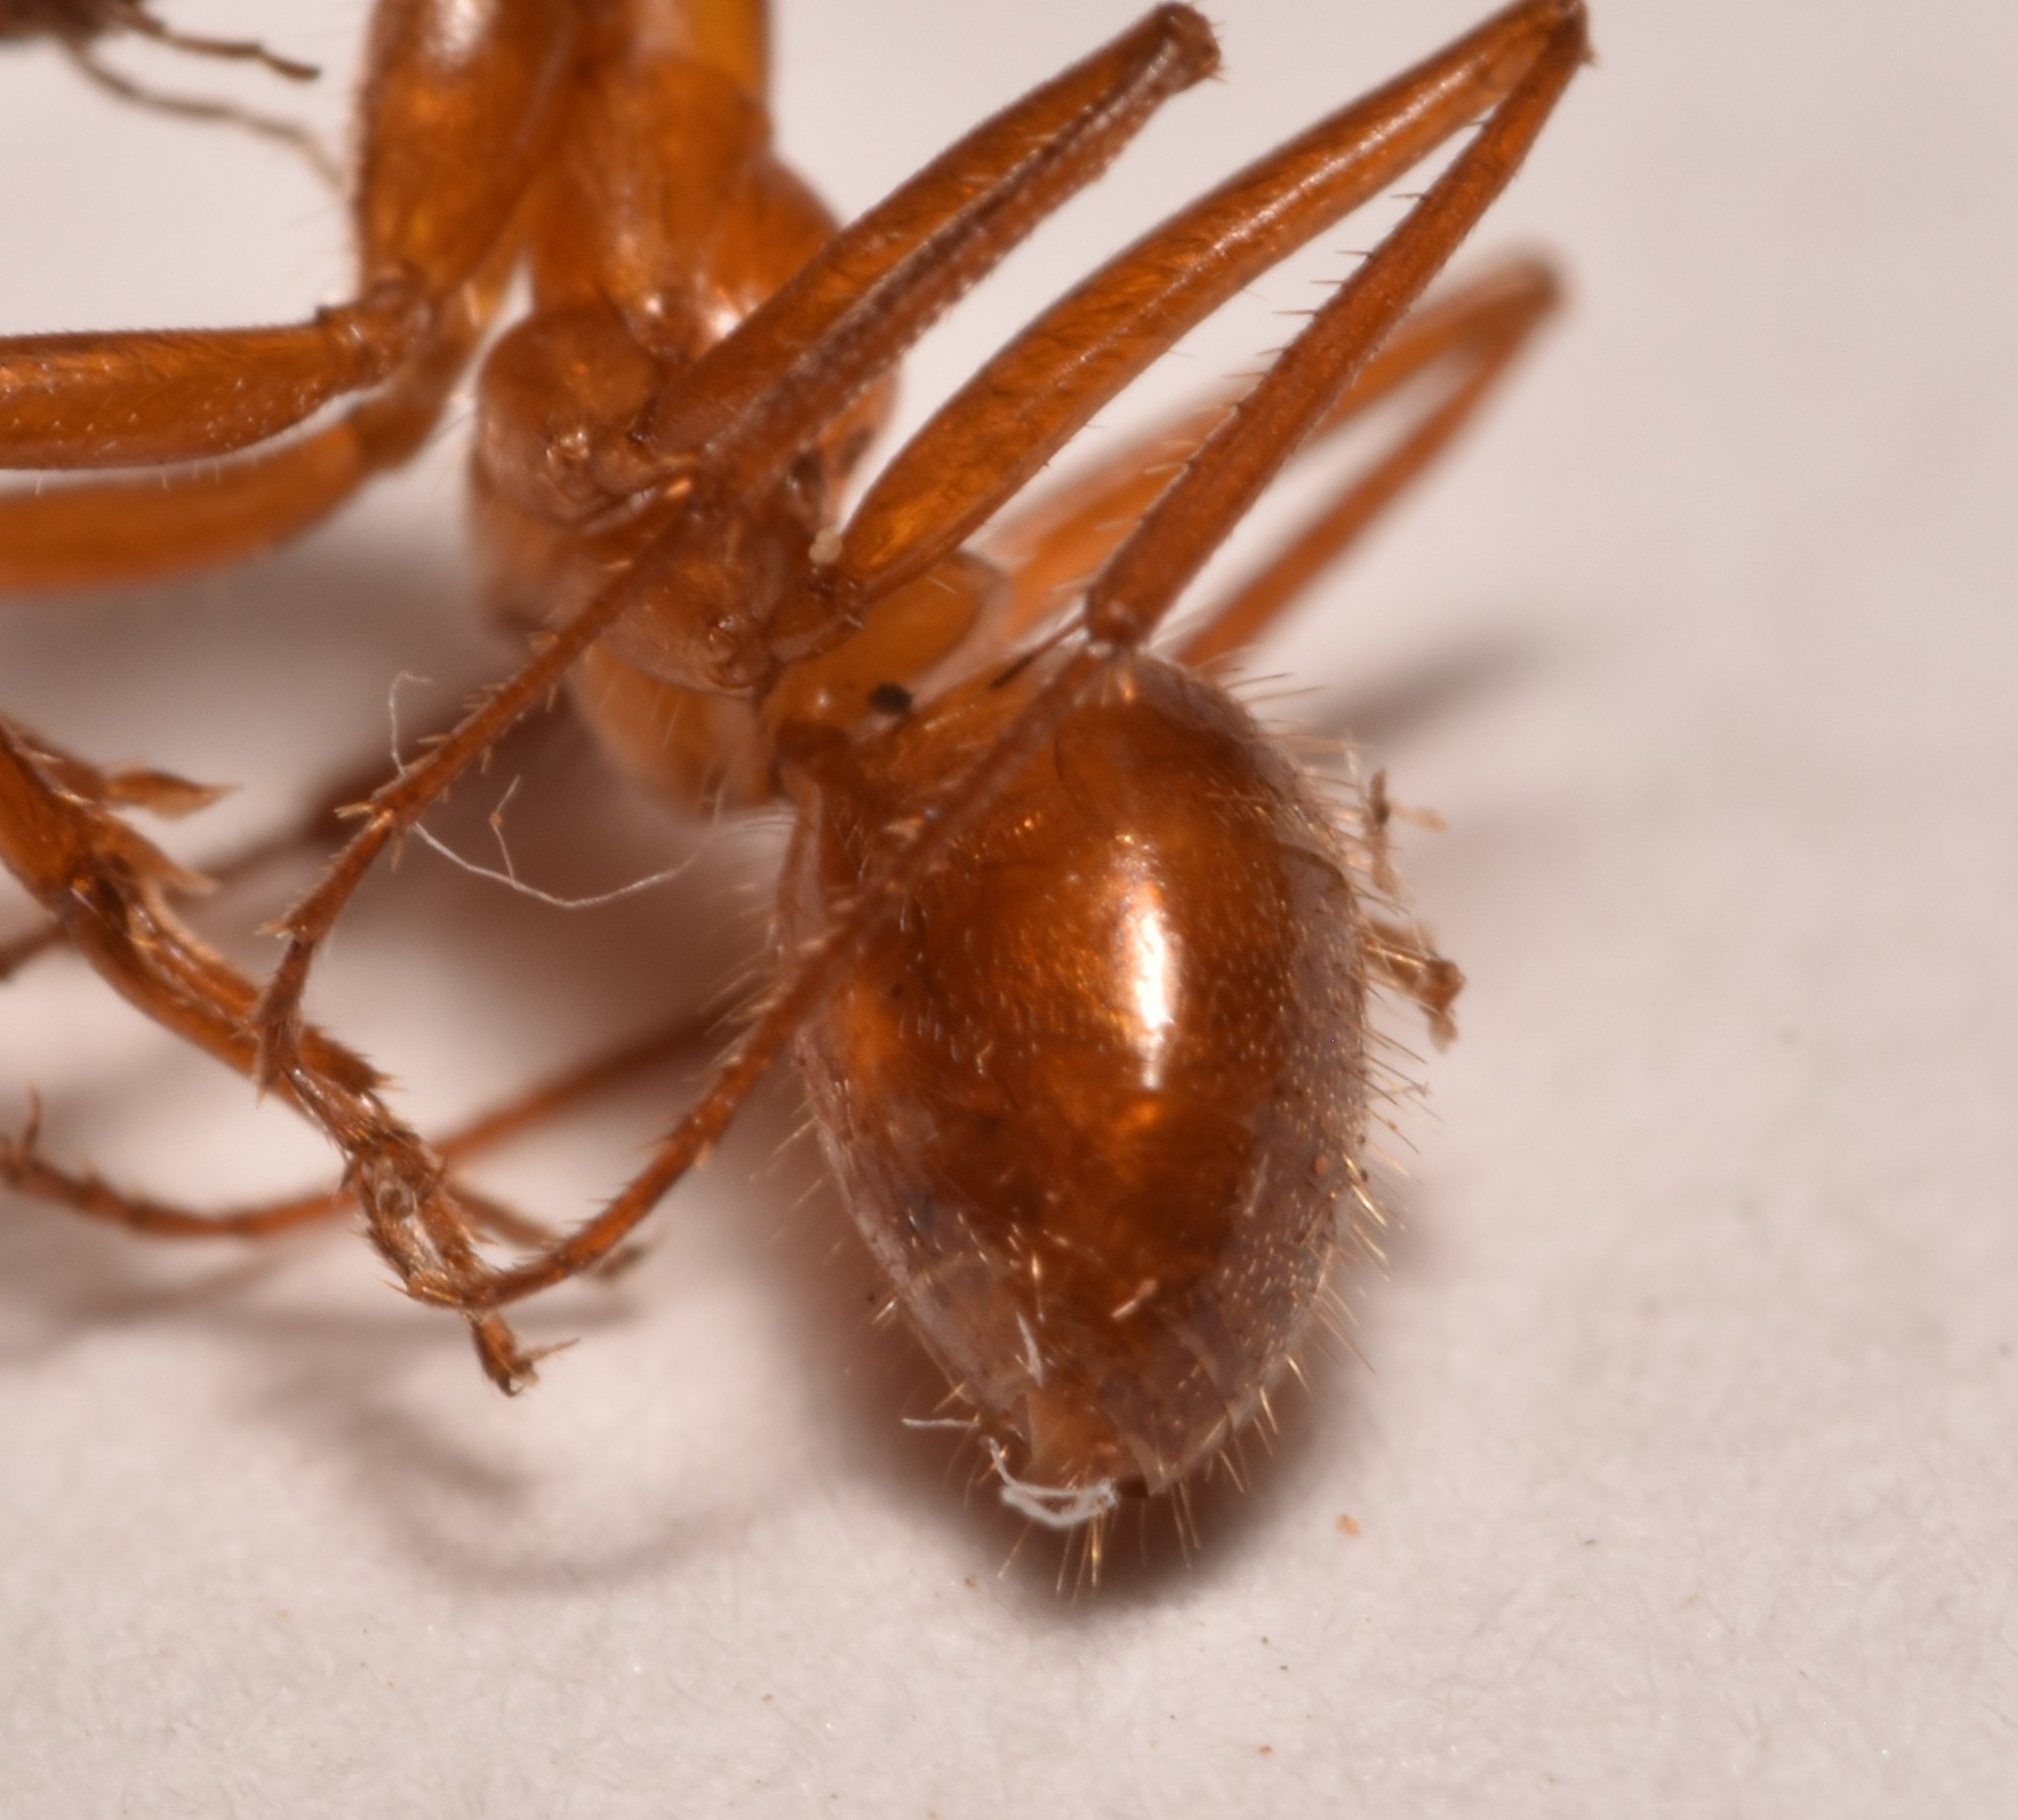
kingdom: Animalia
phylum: Arthropoda
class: Insecta
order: Hymenoptera
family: Formicidae
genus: Formica
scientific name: Formica biophilica
